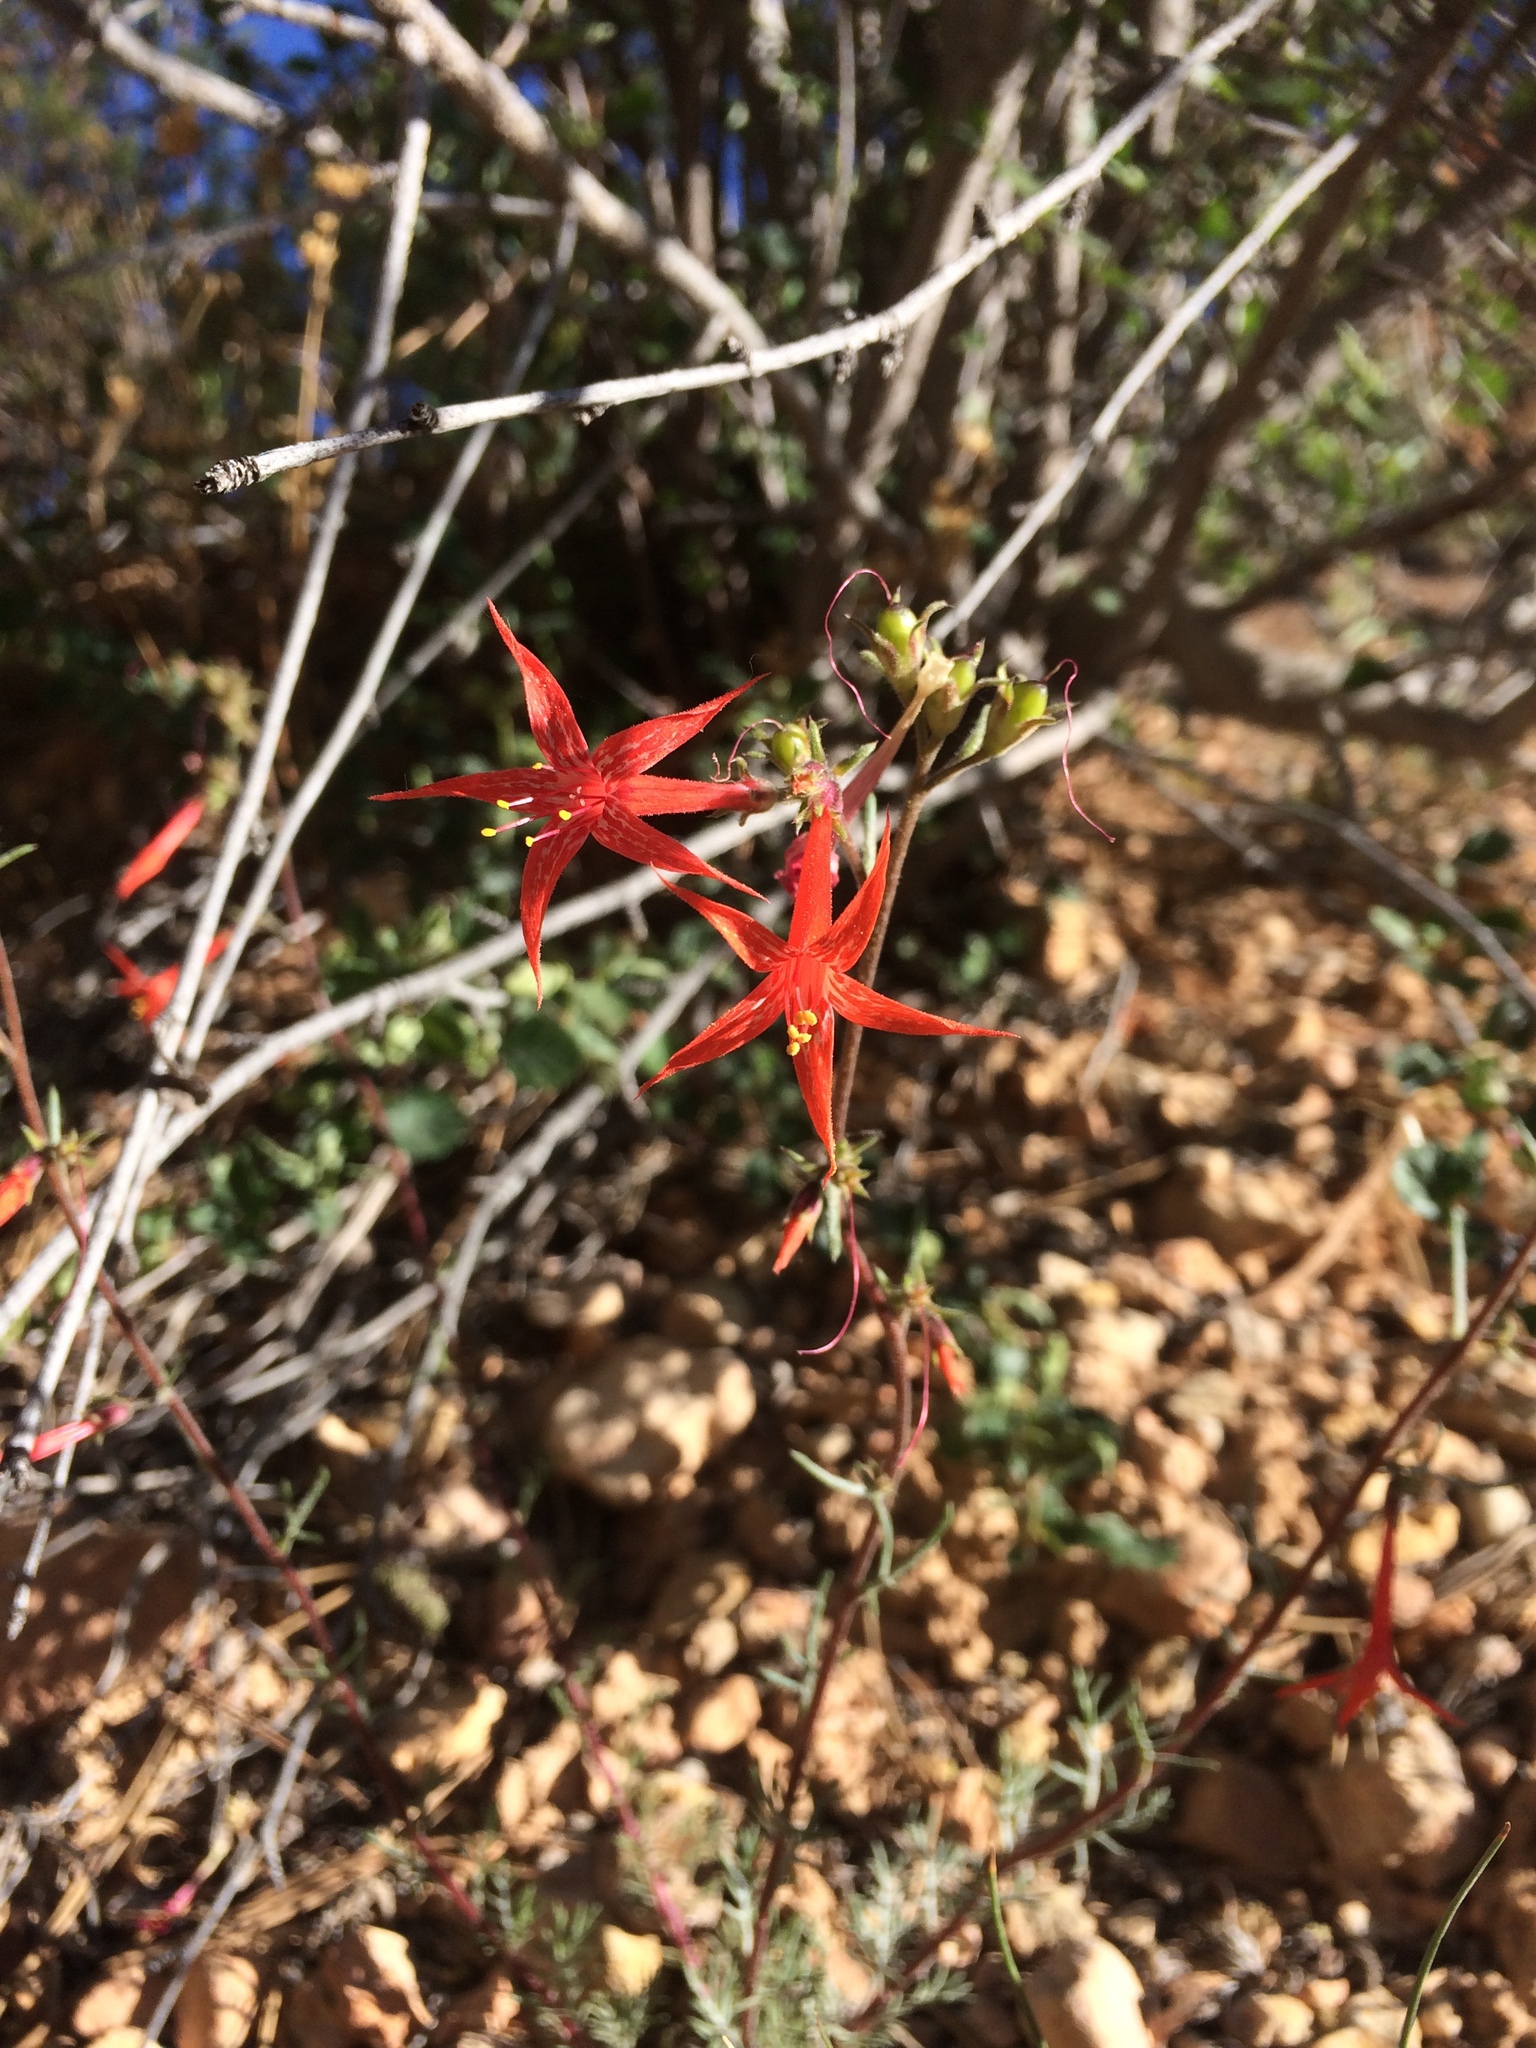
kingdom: Plantae
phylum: Tracheophyta
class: Magnoliopsida
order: Ericales
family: Polemoniaceae
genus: Ipomopsis
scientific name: Ipomopsis aggregata
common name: Scarlet gilia
